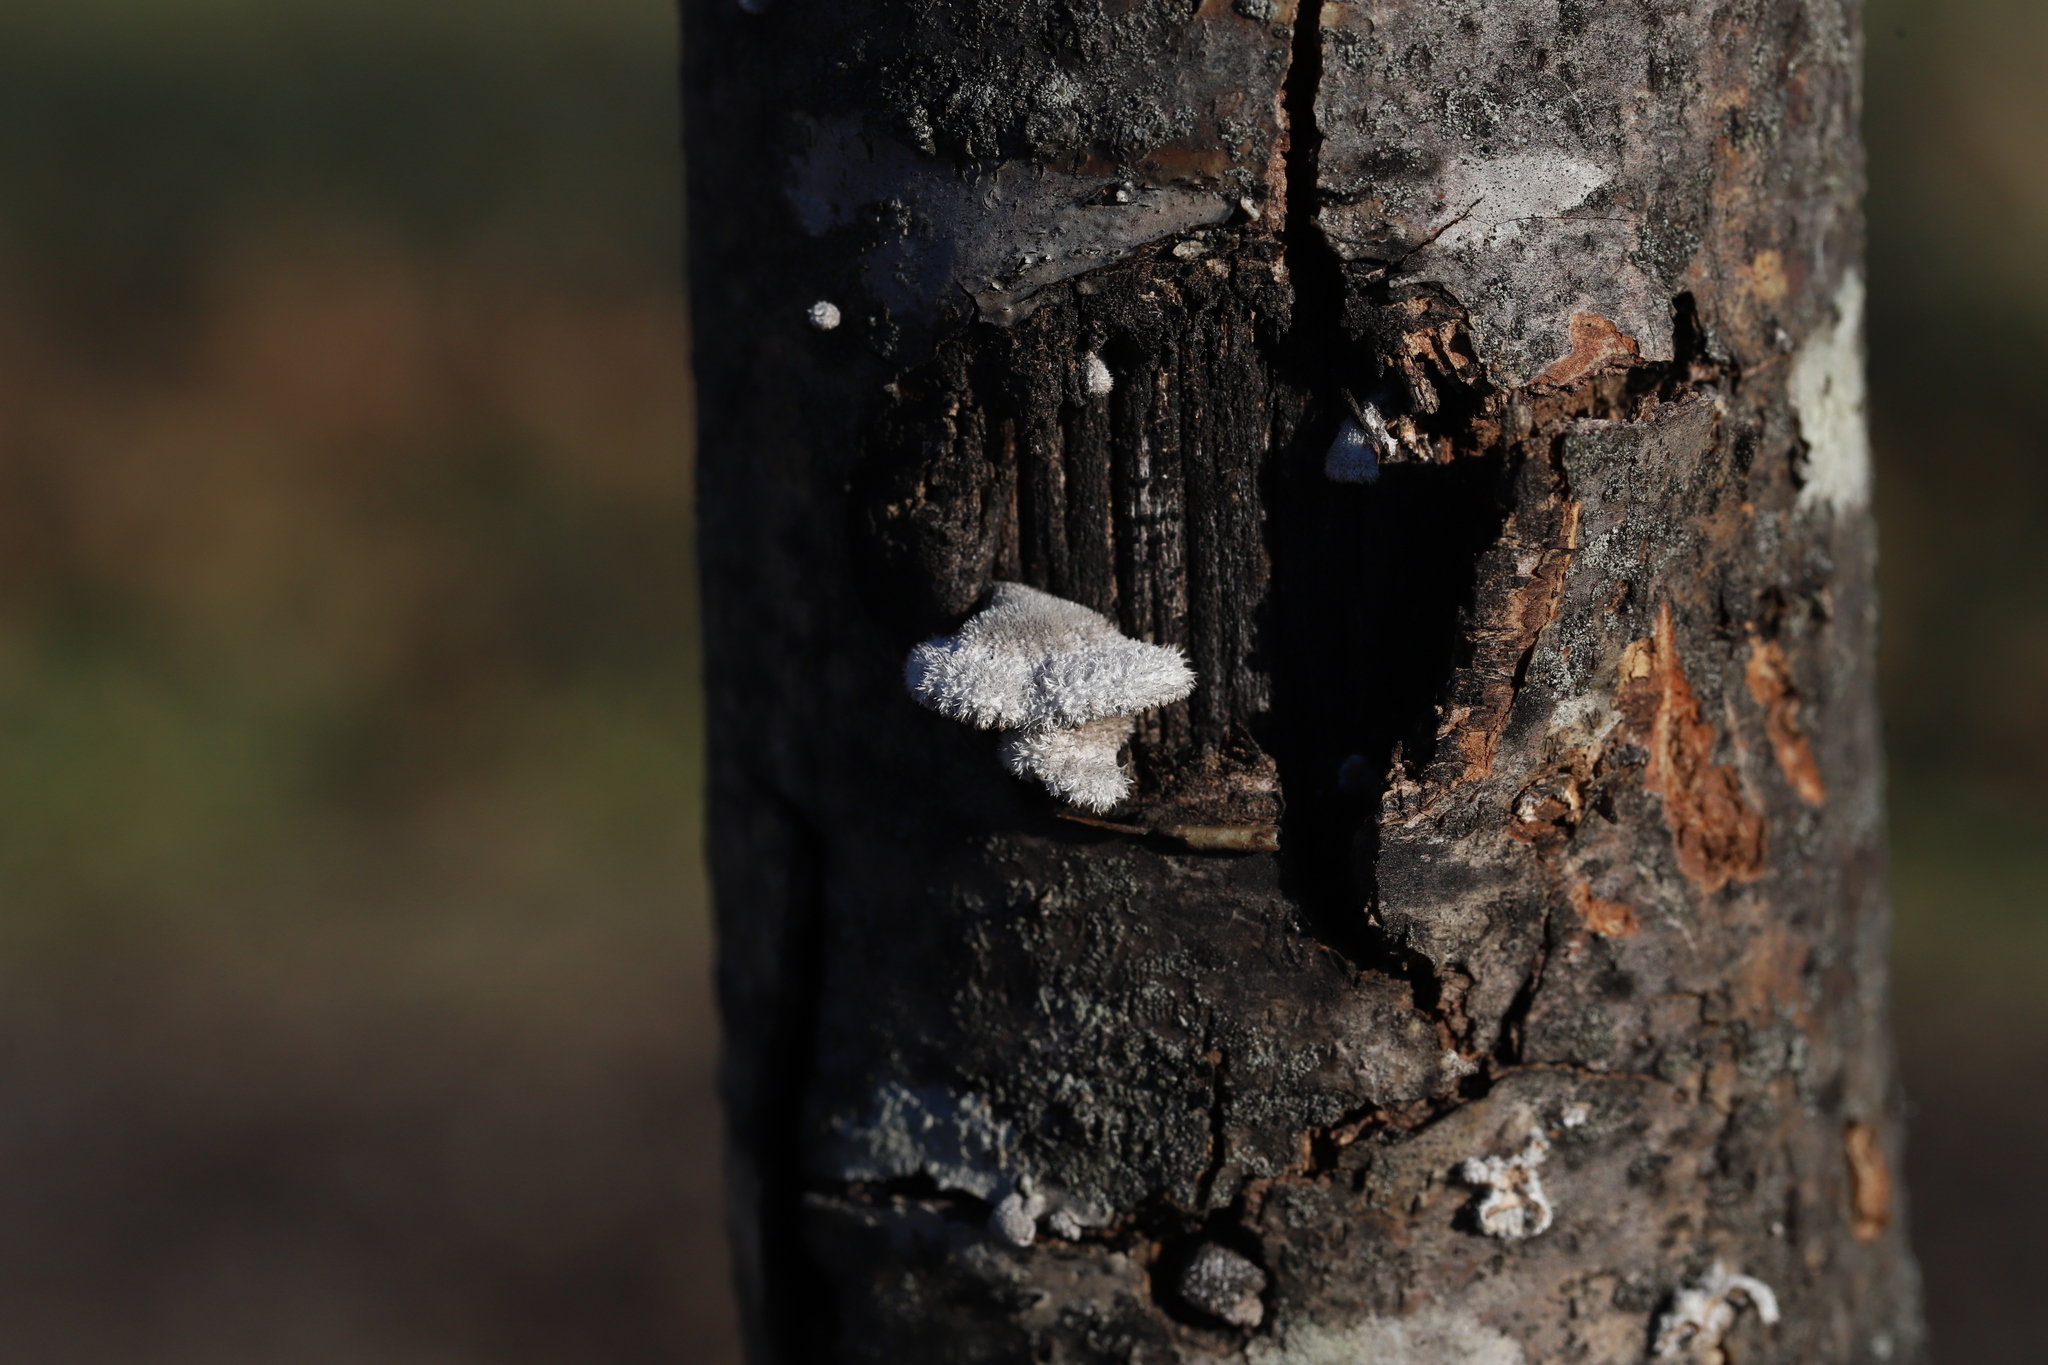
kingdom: Fungi
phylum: Basidiomycota
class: Agaricomycetes
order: Agaricales
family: Schizophyllaceae
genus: Schizophyllum
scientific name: Schizophyllum commune
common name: Common porecrust
